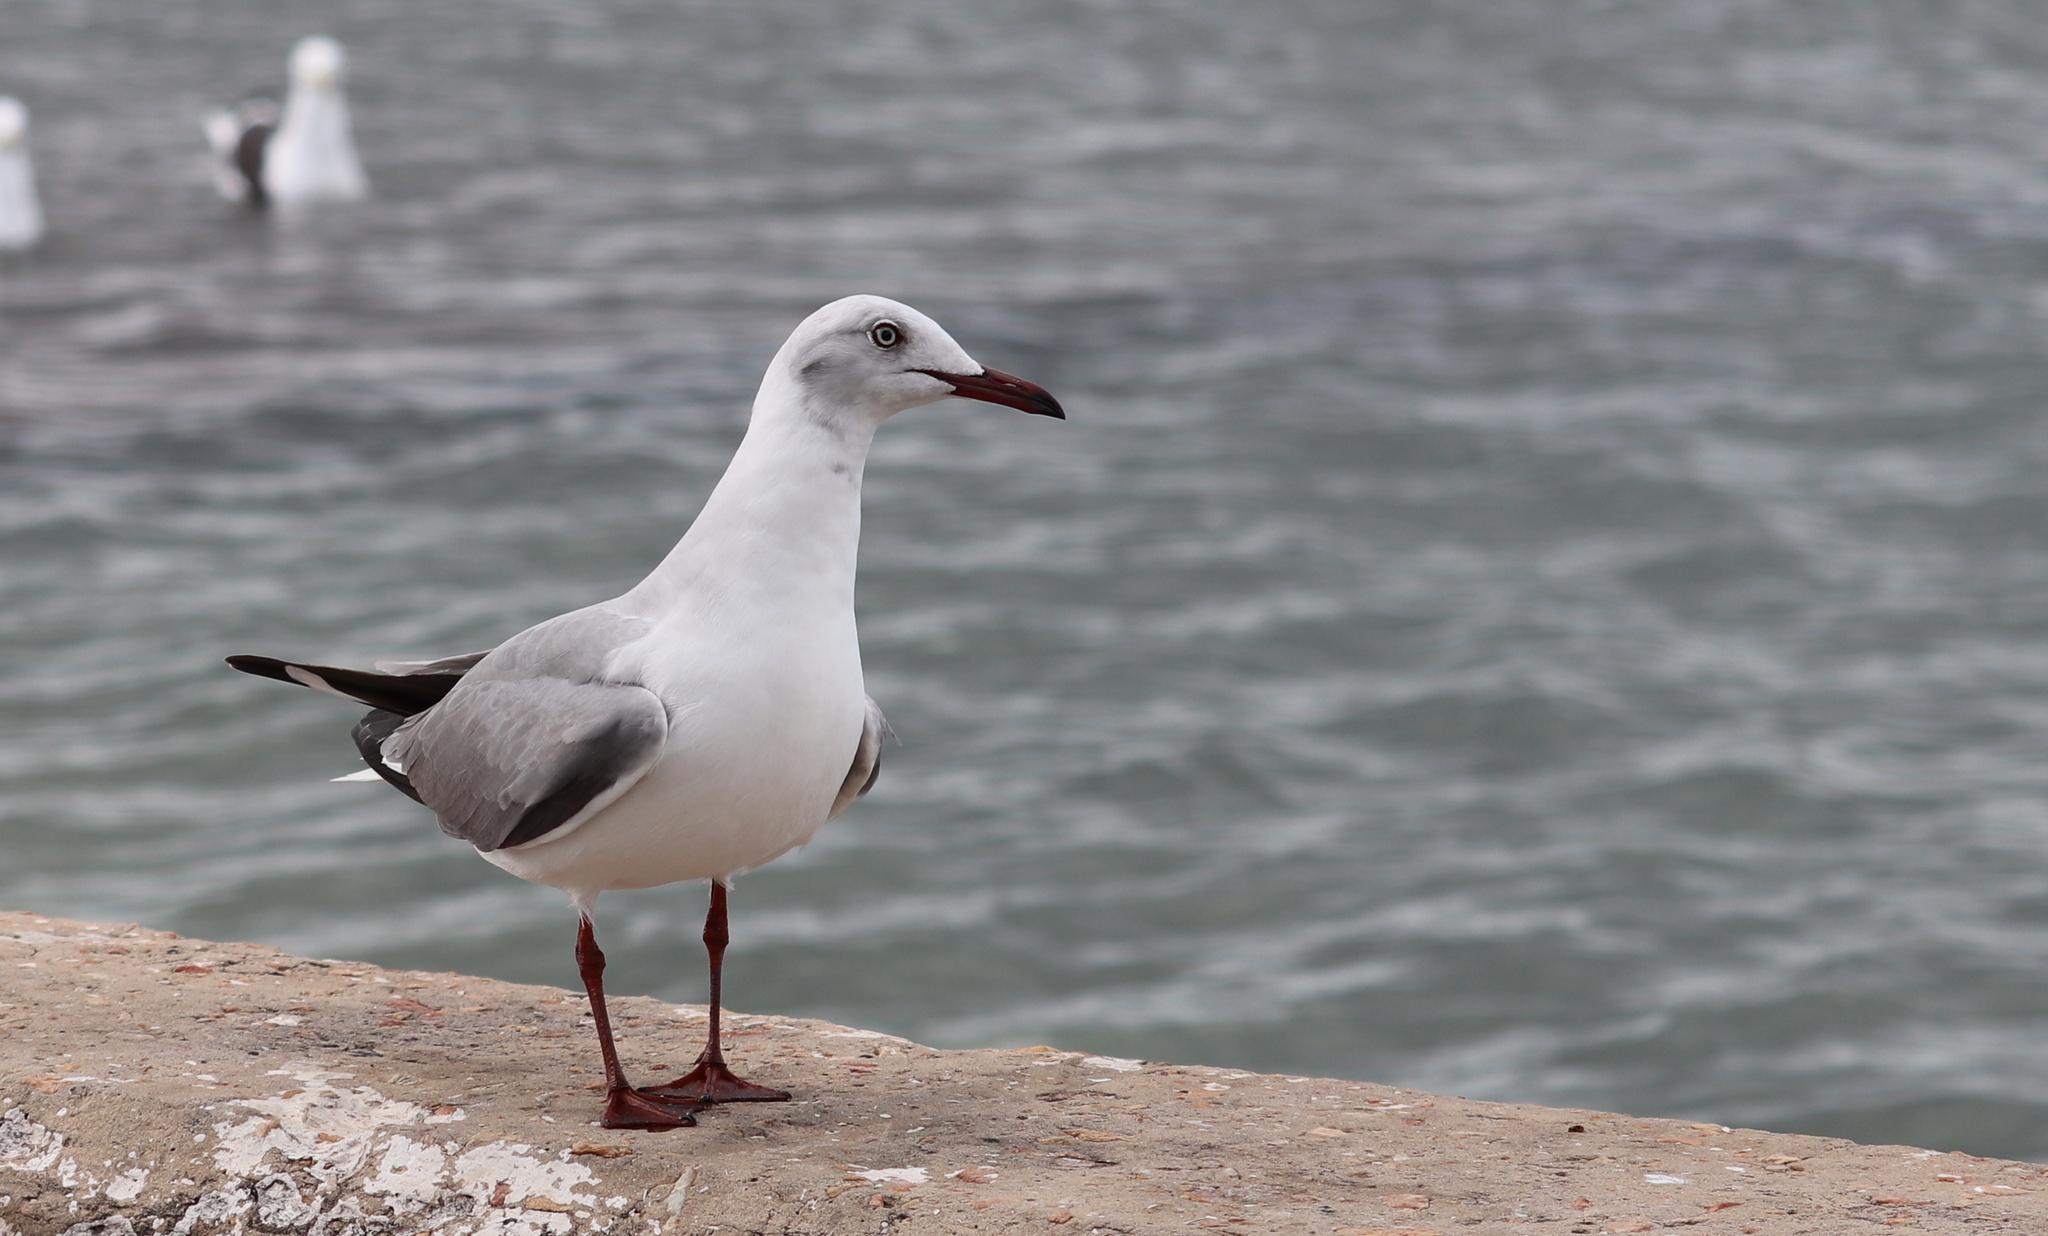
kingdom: Animalia
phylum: Chordata
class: Aves
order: Charadriiformes
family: Laridae
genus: Chroicocephalus
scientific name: Chroicocephalus cirrocephalus
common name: Grey-headed gull
